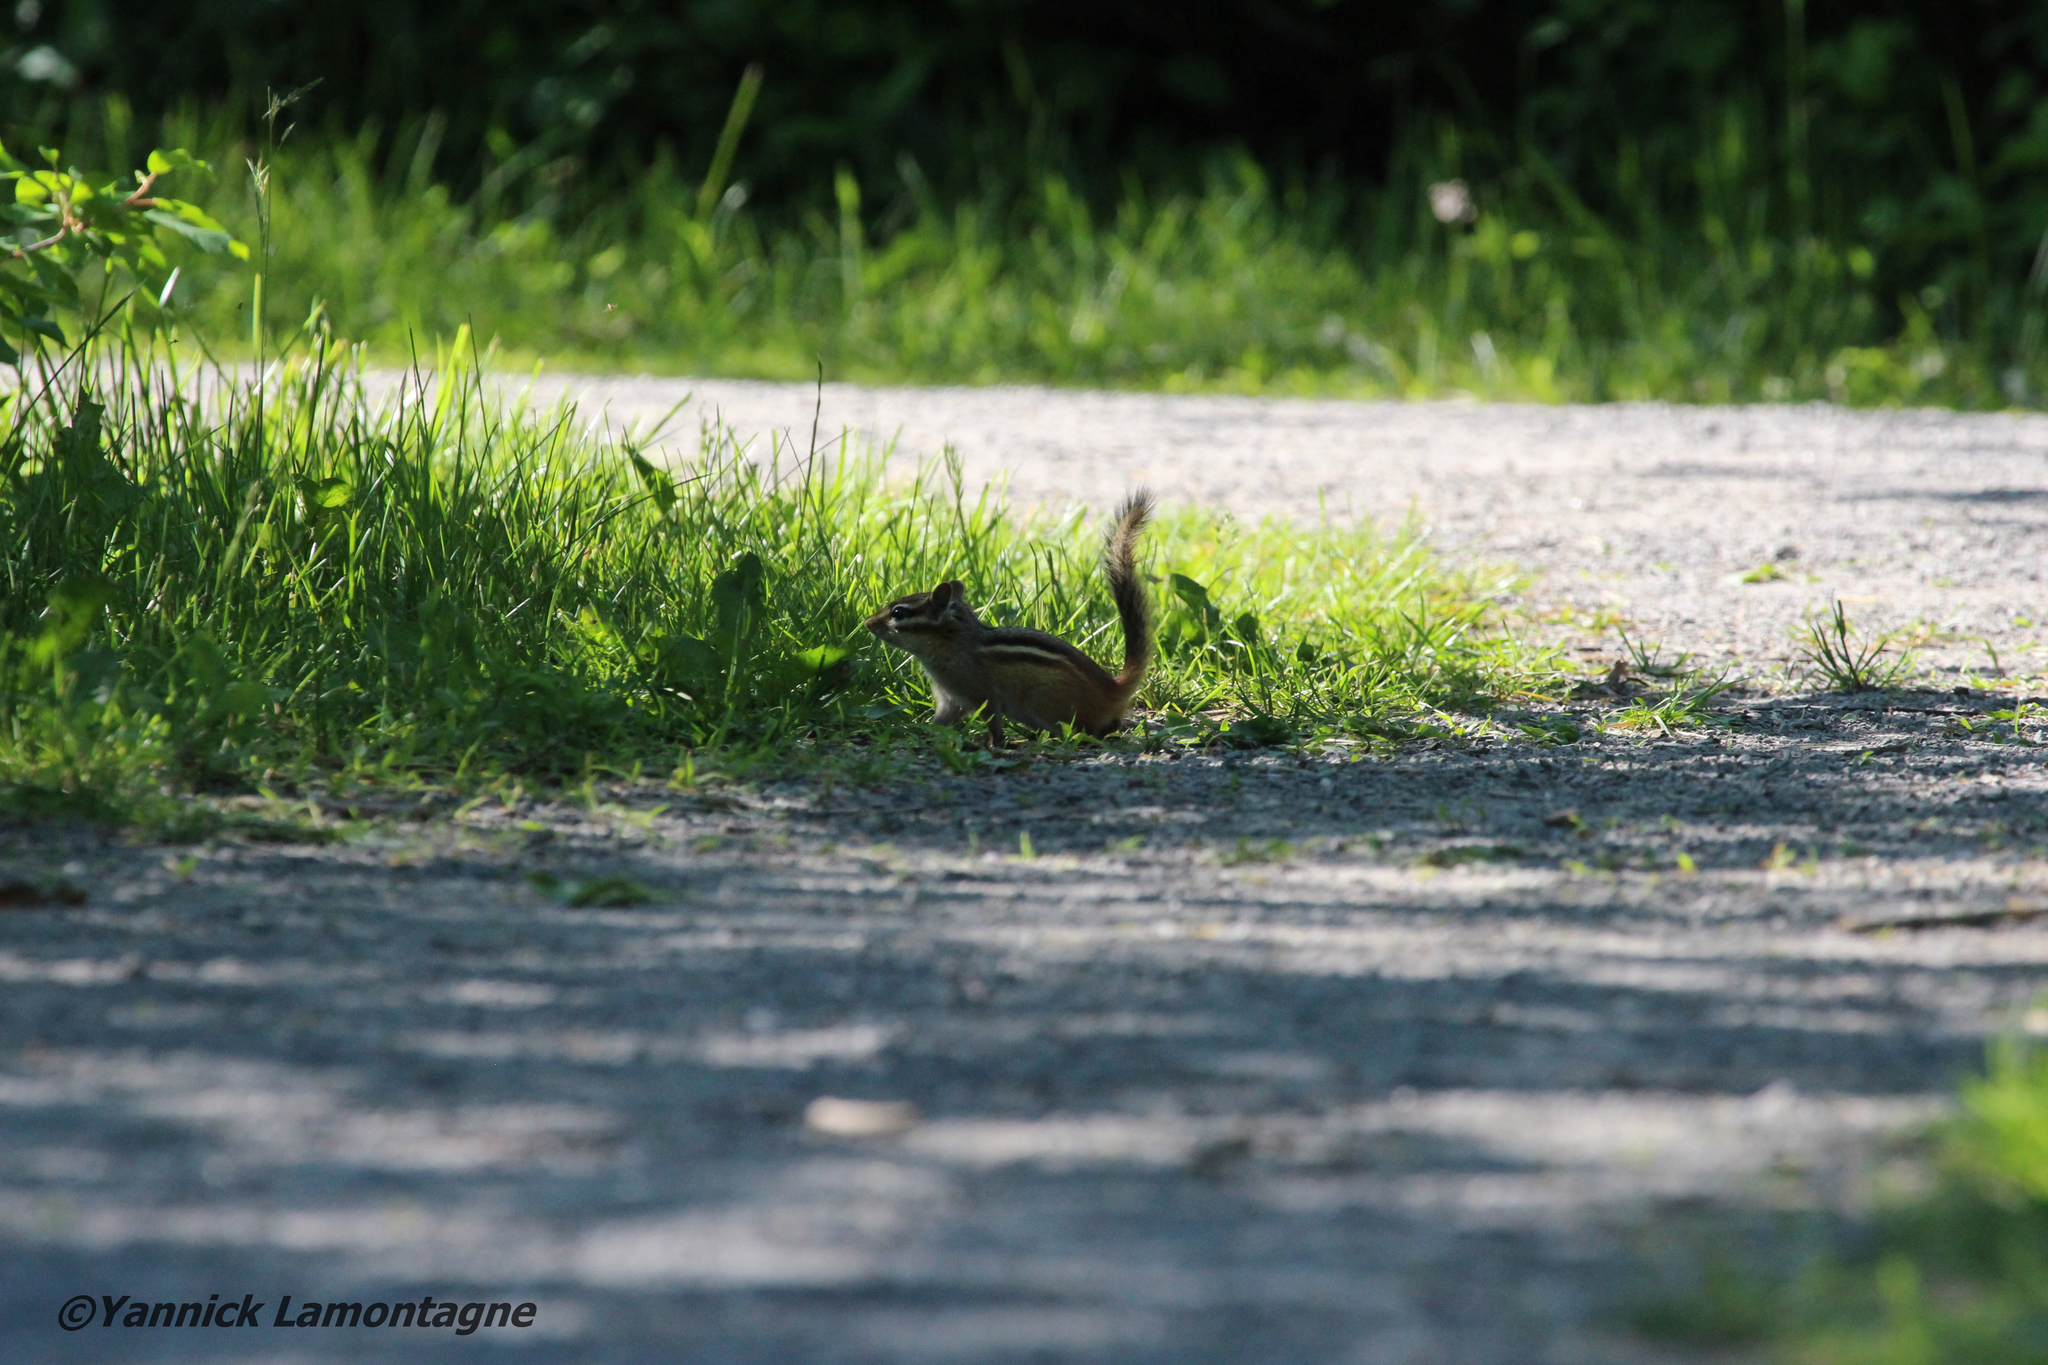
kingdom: Animalia
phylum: Chordata
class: Mammalia
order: Rodentia
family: Sciuridae
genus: Tamias
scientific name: Tamias striatus
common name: Eastern chipmunk
